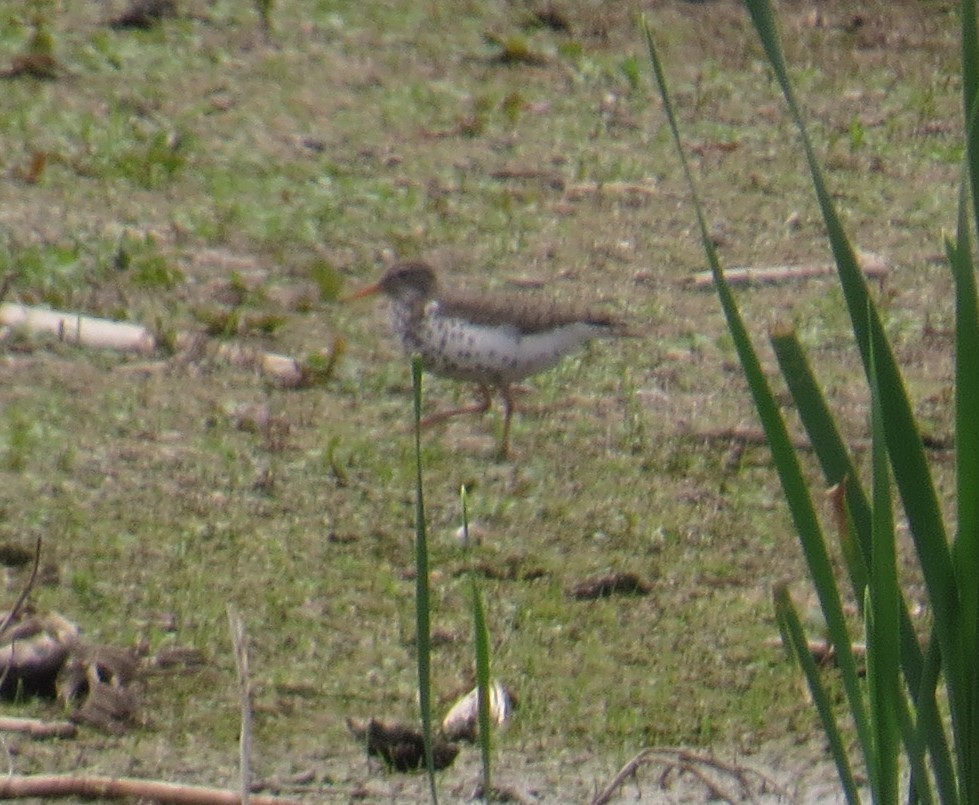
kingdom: Animalia
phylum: Chordata
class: Aves
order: Charadriiformes
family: Scolopacidae
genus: Actitis
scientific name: Actitis macularius
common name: Spotted sandpiper
